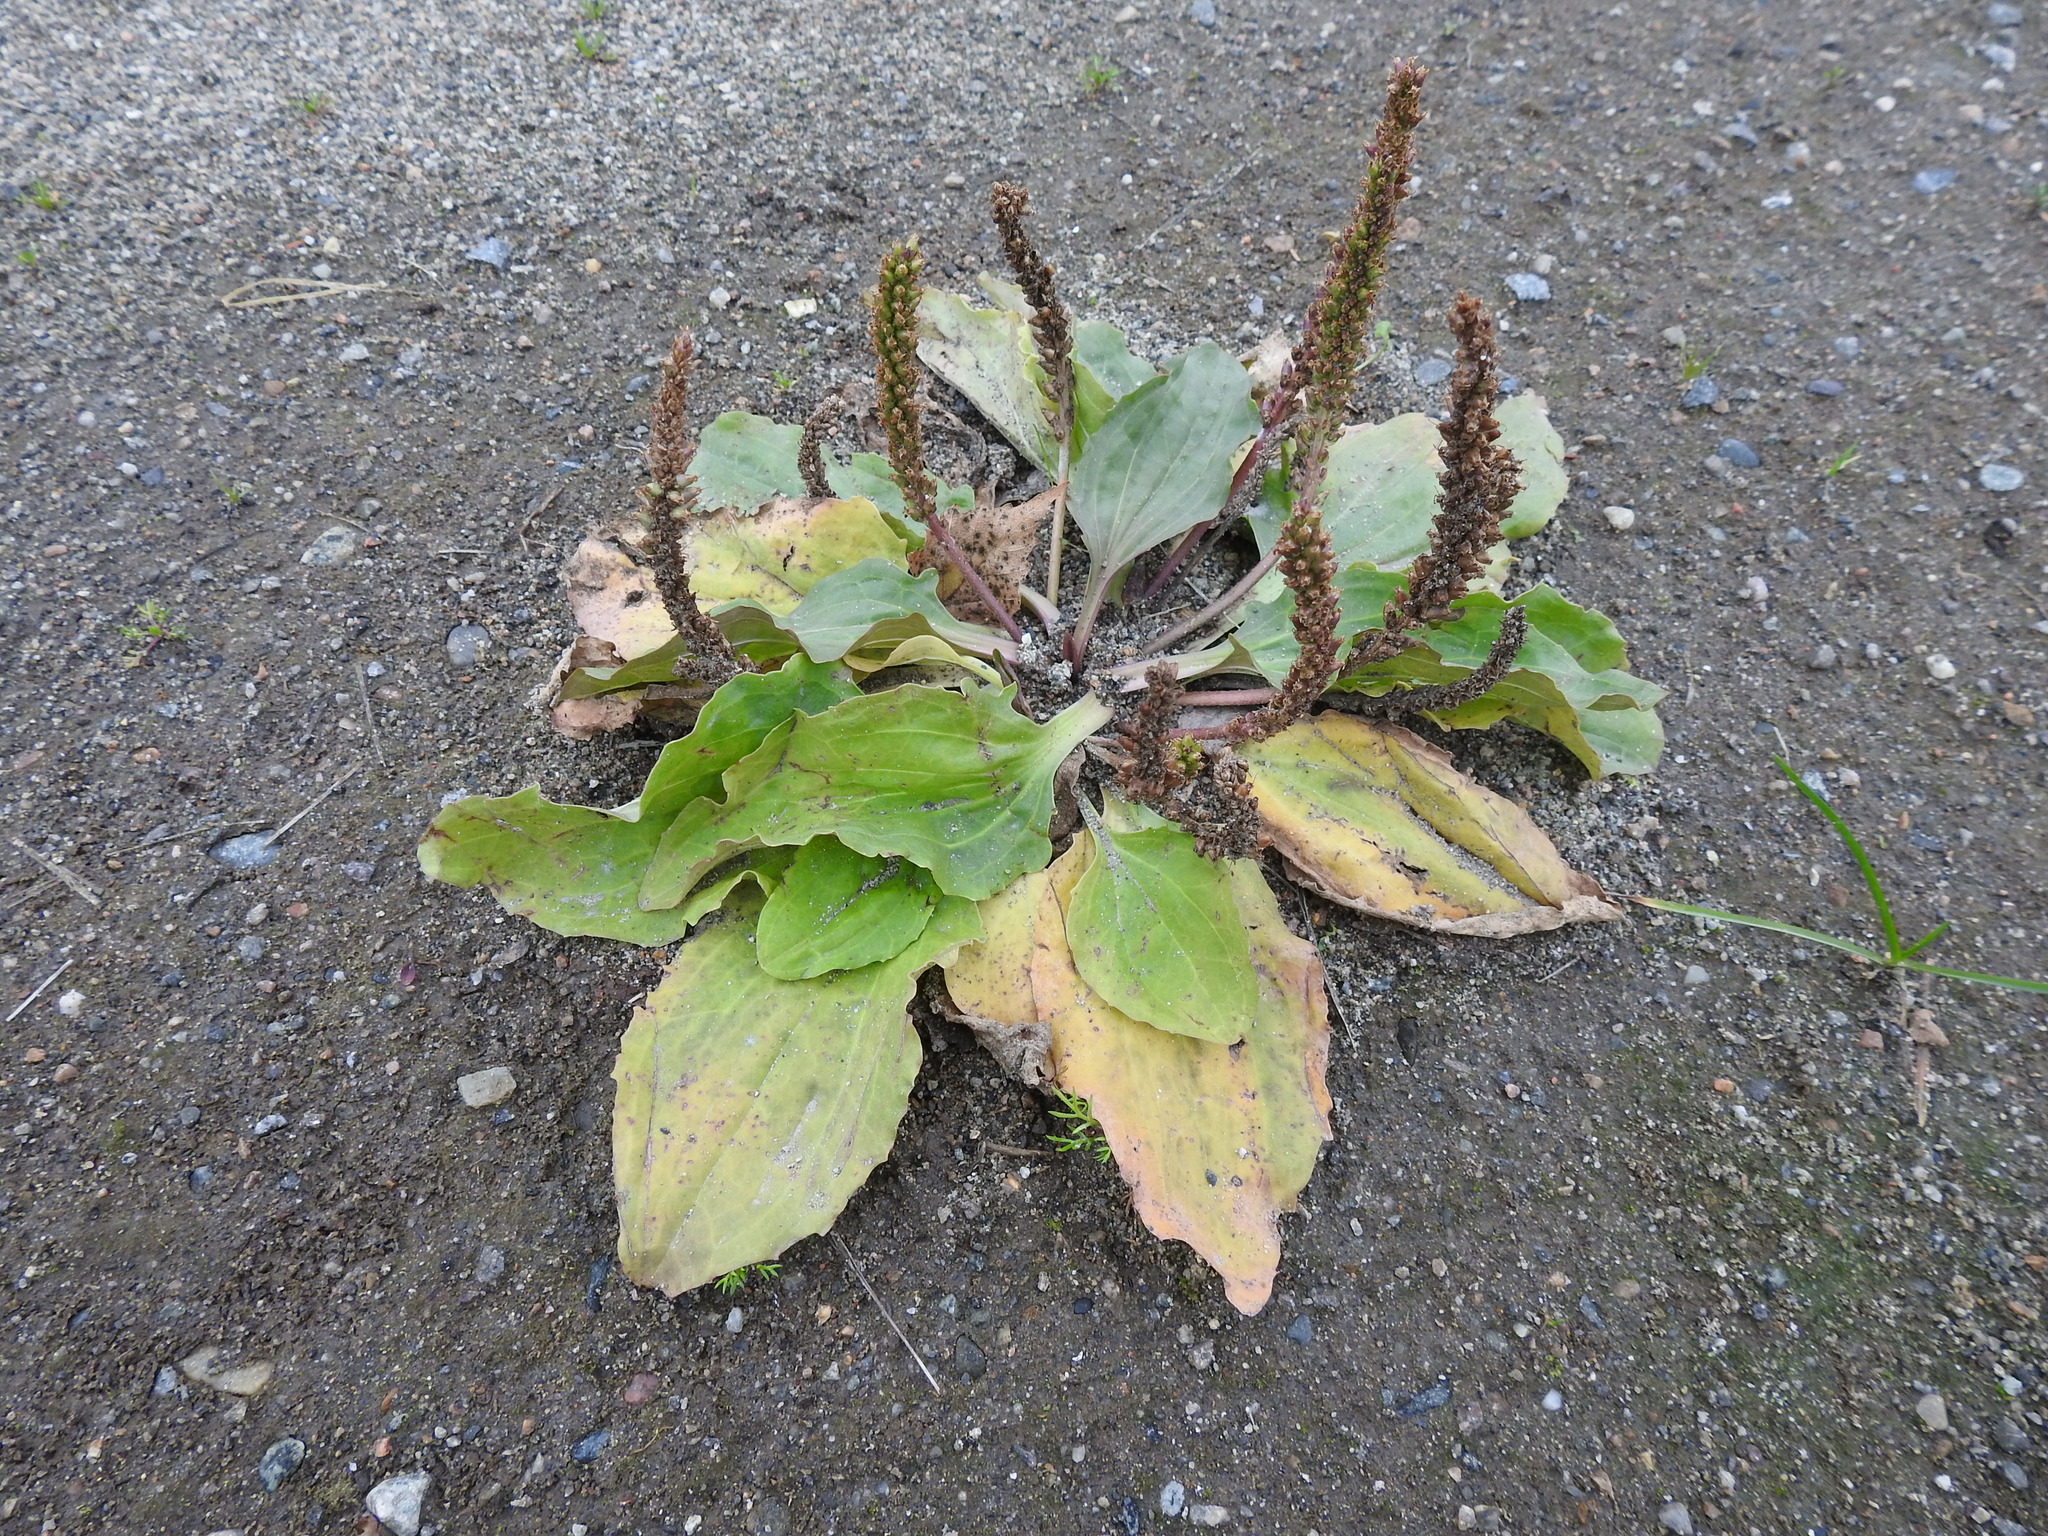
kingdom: Plantae
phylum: Tracheophyta
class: Magnoliopsida
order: Lamiales
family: Plantaginaceae
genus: Plantago
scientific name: Plantago major
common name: Common plantain
